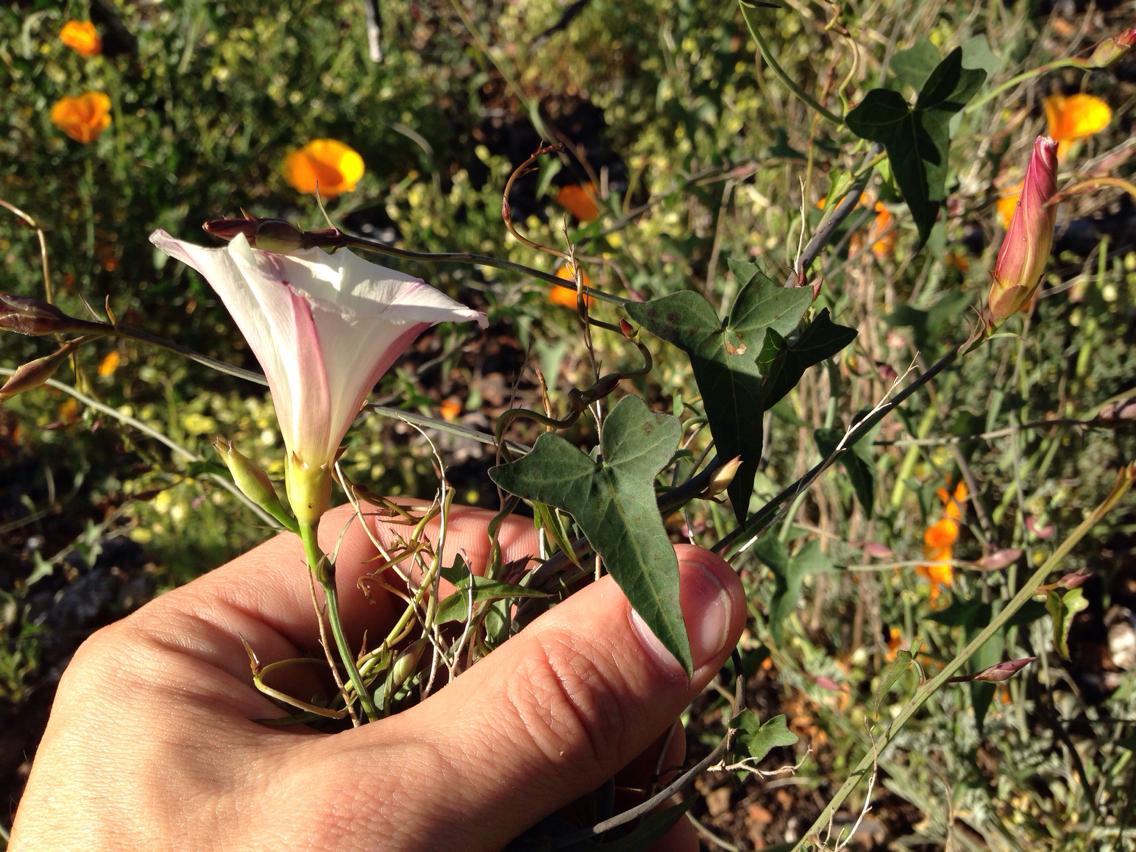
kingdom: Plantae
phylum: Tracheophyta
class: Magnoliopsida
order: Solanales
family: Convolvulaceae
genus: Calystegia
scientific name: Calystegia purpurata
